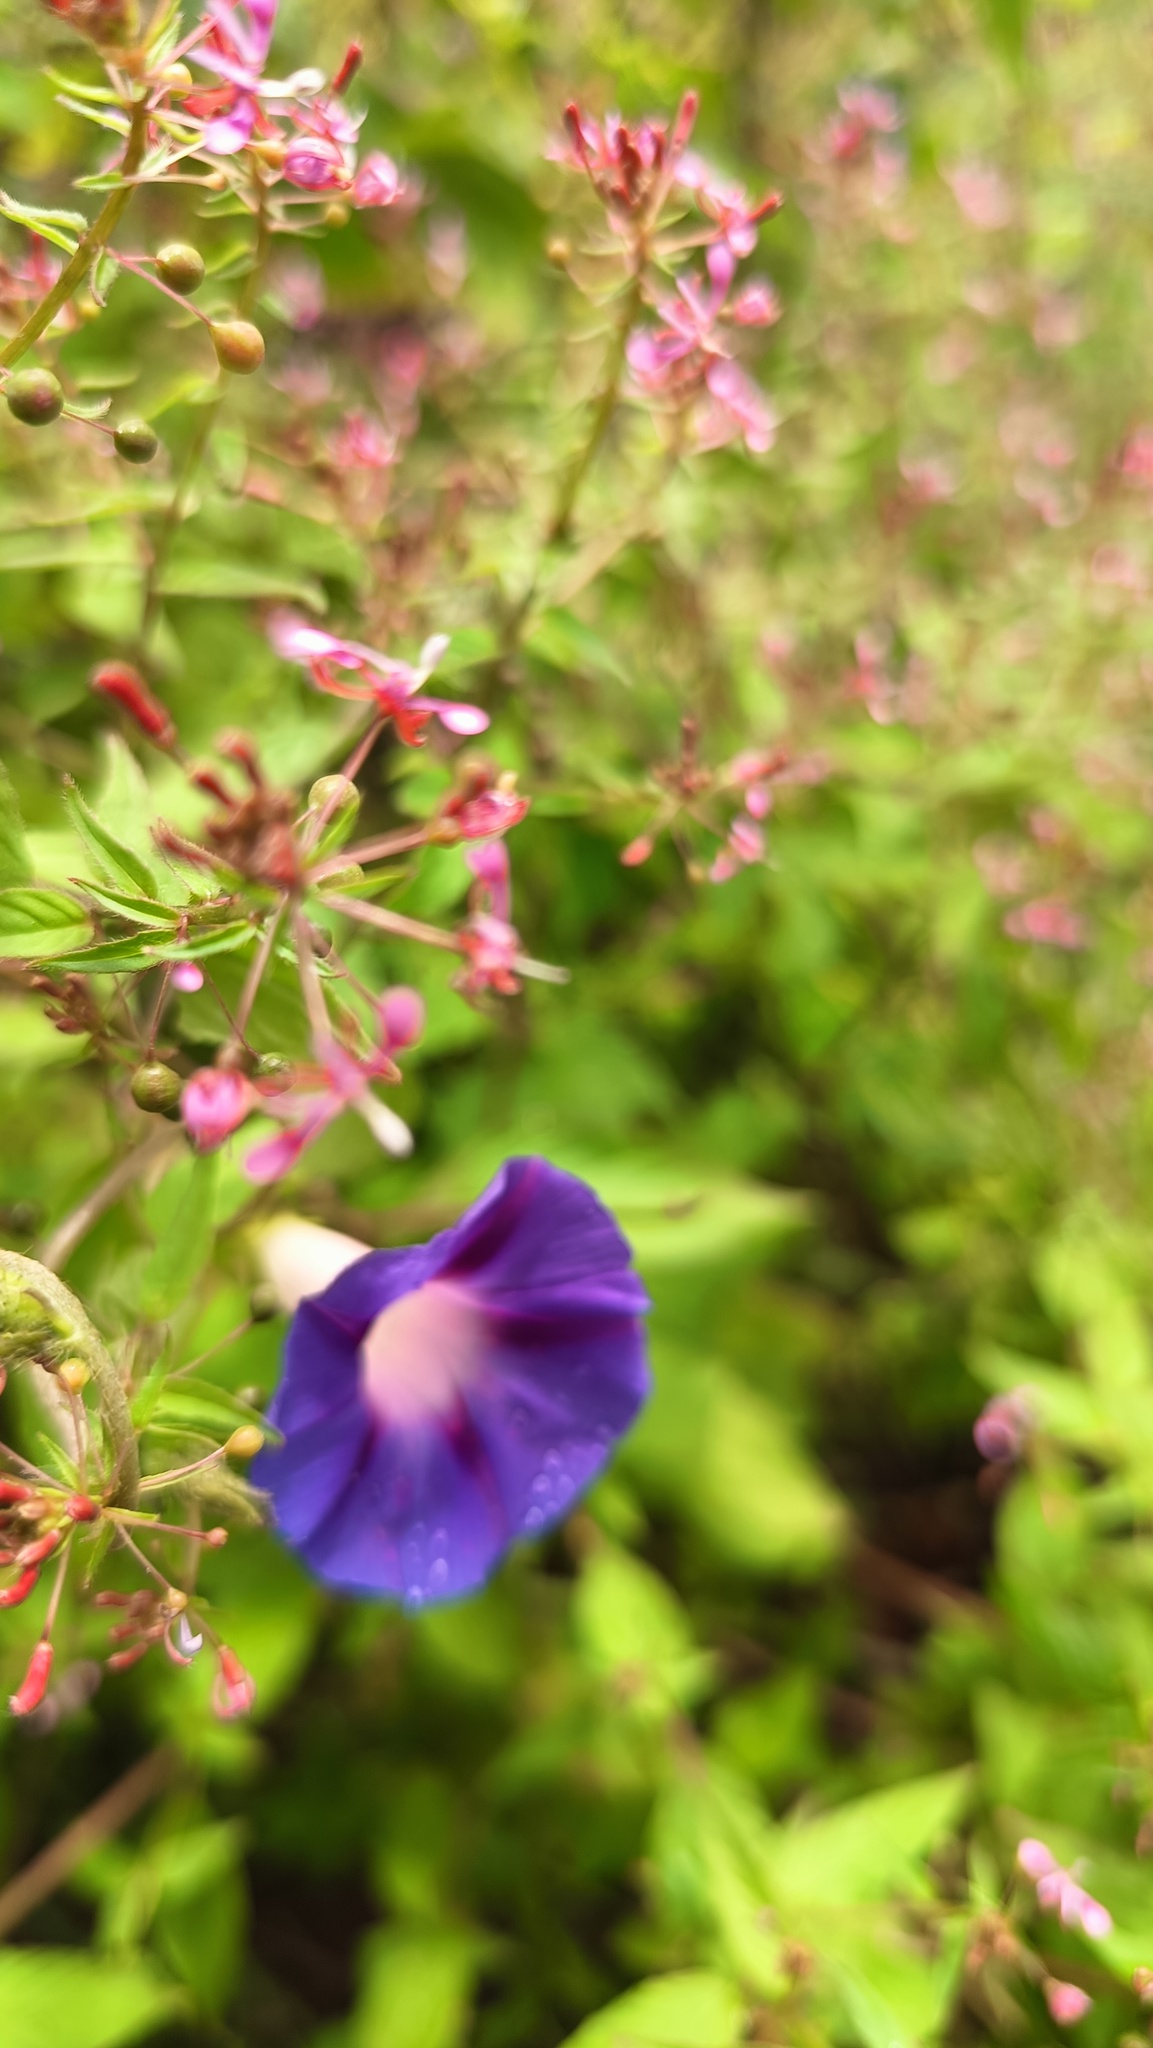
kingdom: Plantae
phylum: Tracheophyta
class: Magnoliopsida
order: Solanales
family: Convolvulaceae
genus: Ipomoea
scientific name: Ipomoea purpurea
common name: Common morning-glory
